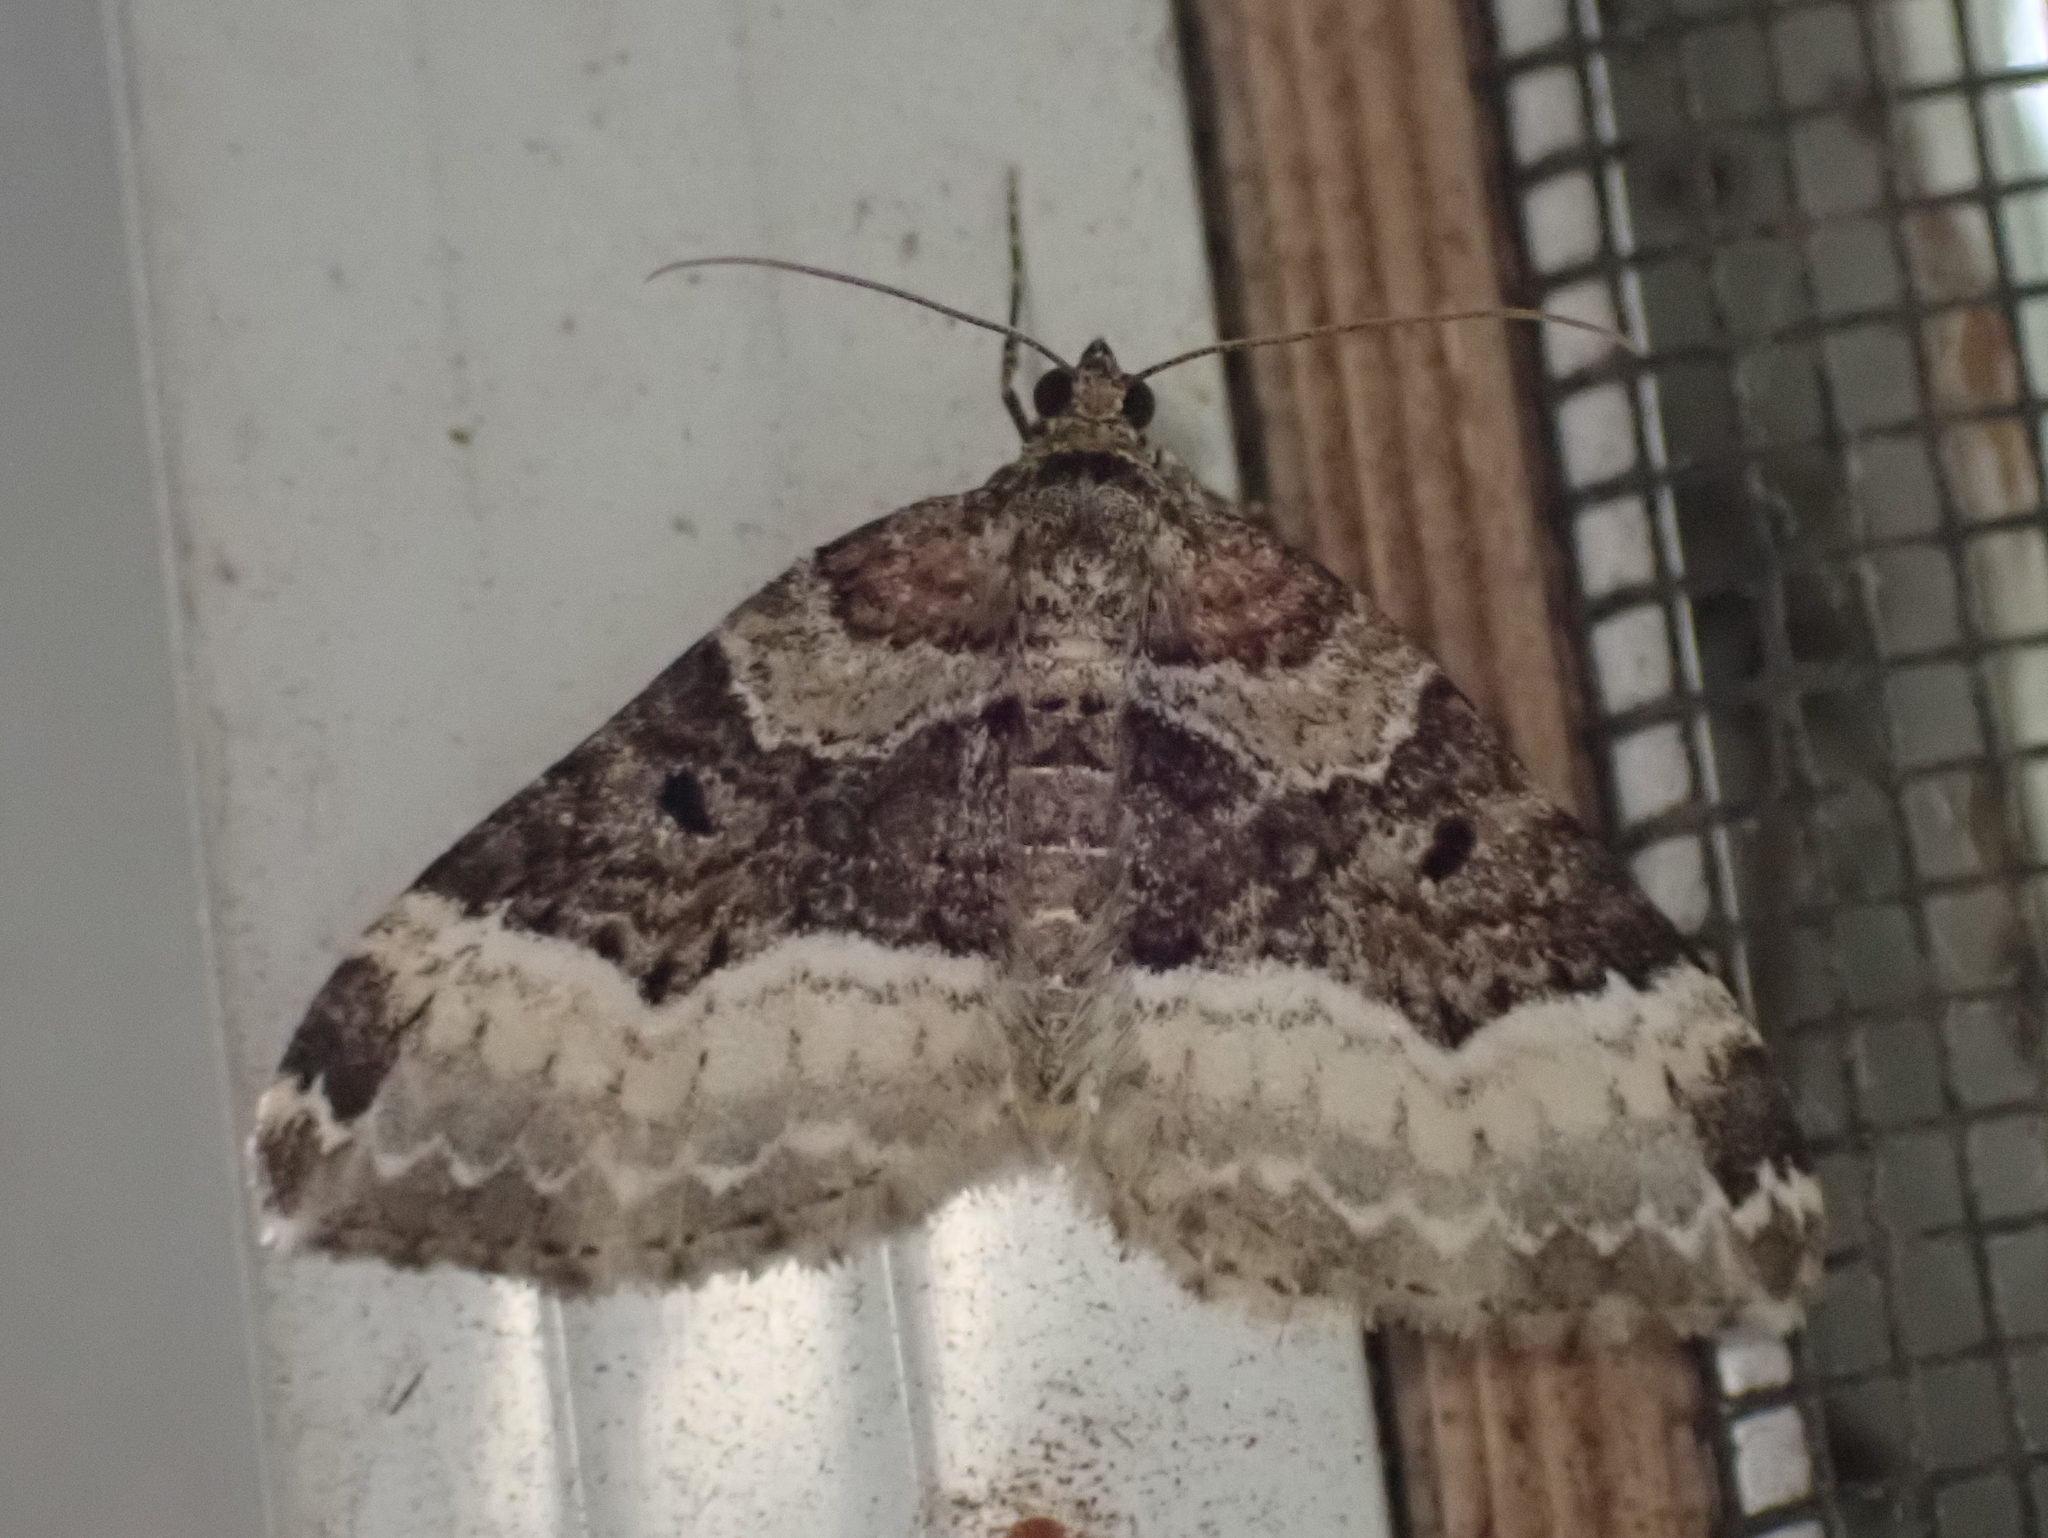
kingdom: Animalia
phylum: Arthropoda
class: Insecta
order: Lepidoptera
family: Geometridae
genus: Euphyia
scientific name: Euphyia intermediata
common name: Sharp-angled carpet
